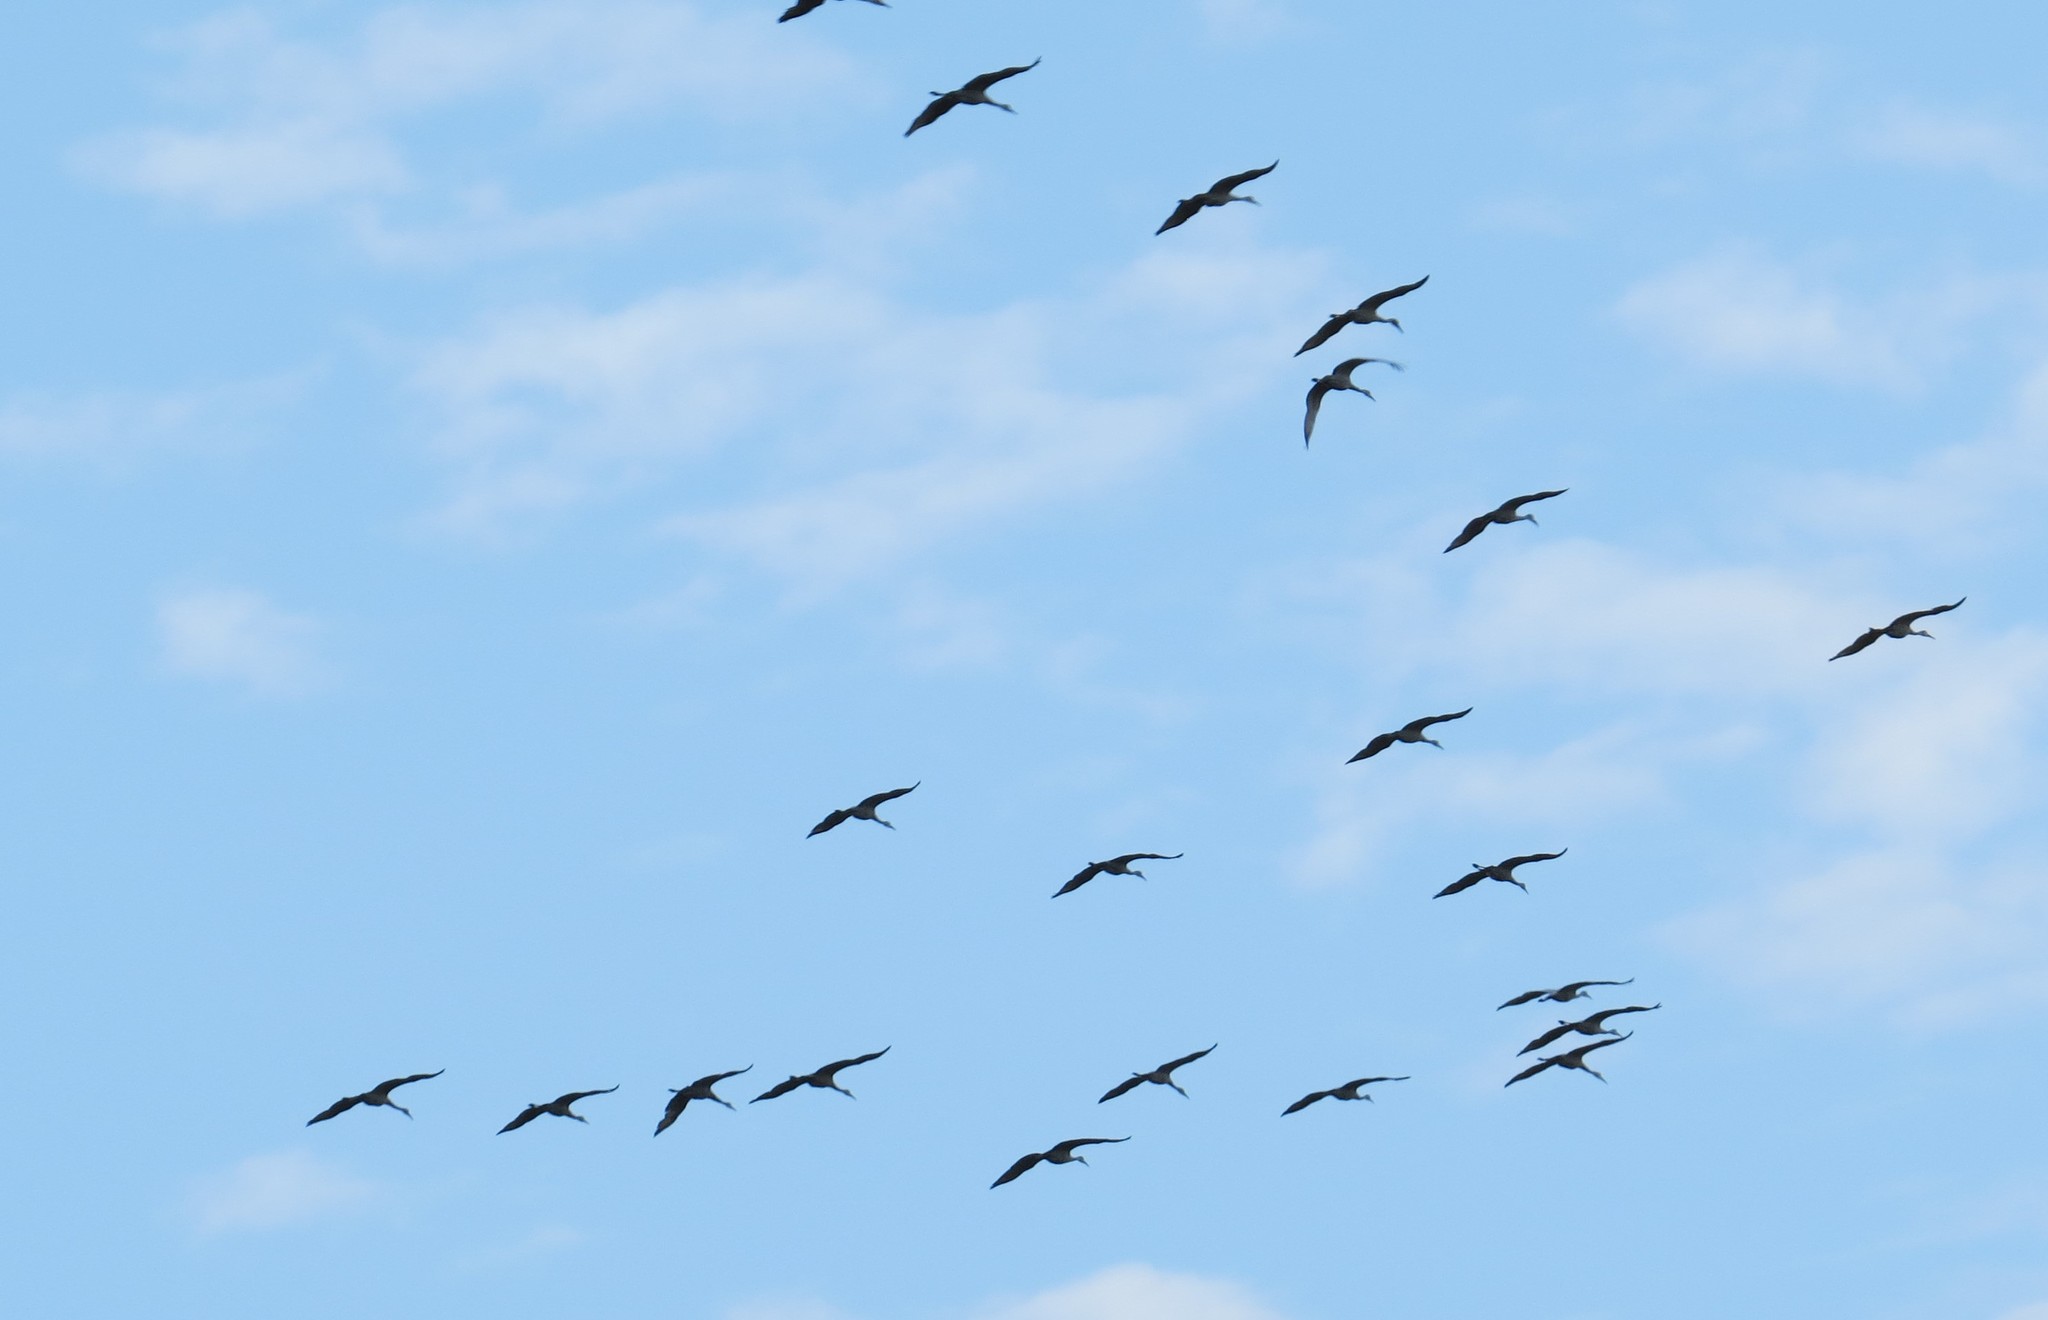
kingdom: Animalia
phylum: Chordata
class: Aves
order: Gruiformes
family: Gruidae
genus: Grus
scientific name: Grus canadensis
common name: Sandhill crane
